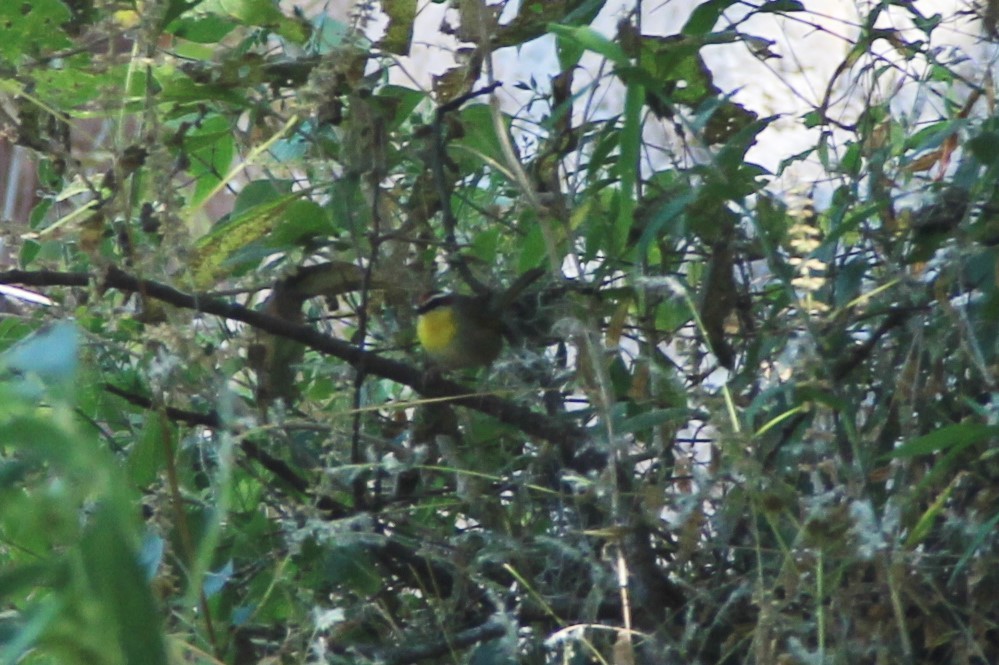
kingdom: Animalia
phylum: Chordata
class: Aves
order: Passeriformes
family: Parulidae
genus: Basileuterus
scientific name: Basileuterus rufifrons
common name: Rufous-capped warbler
